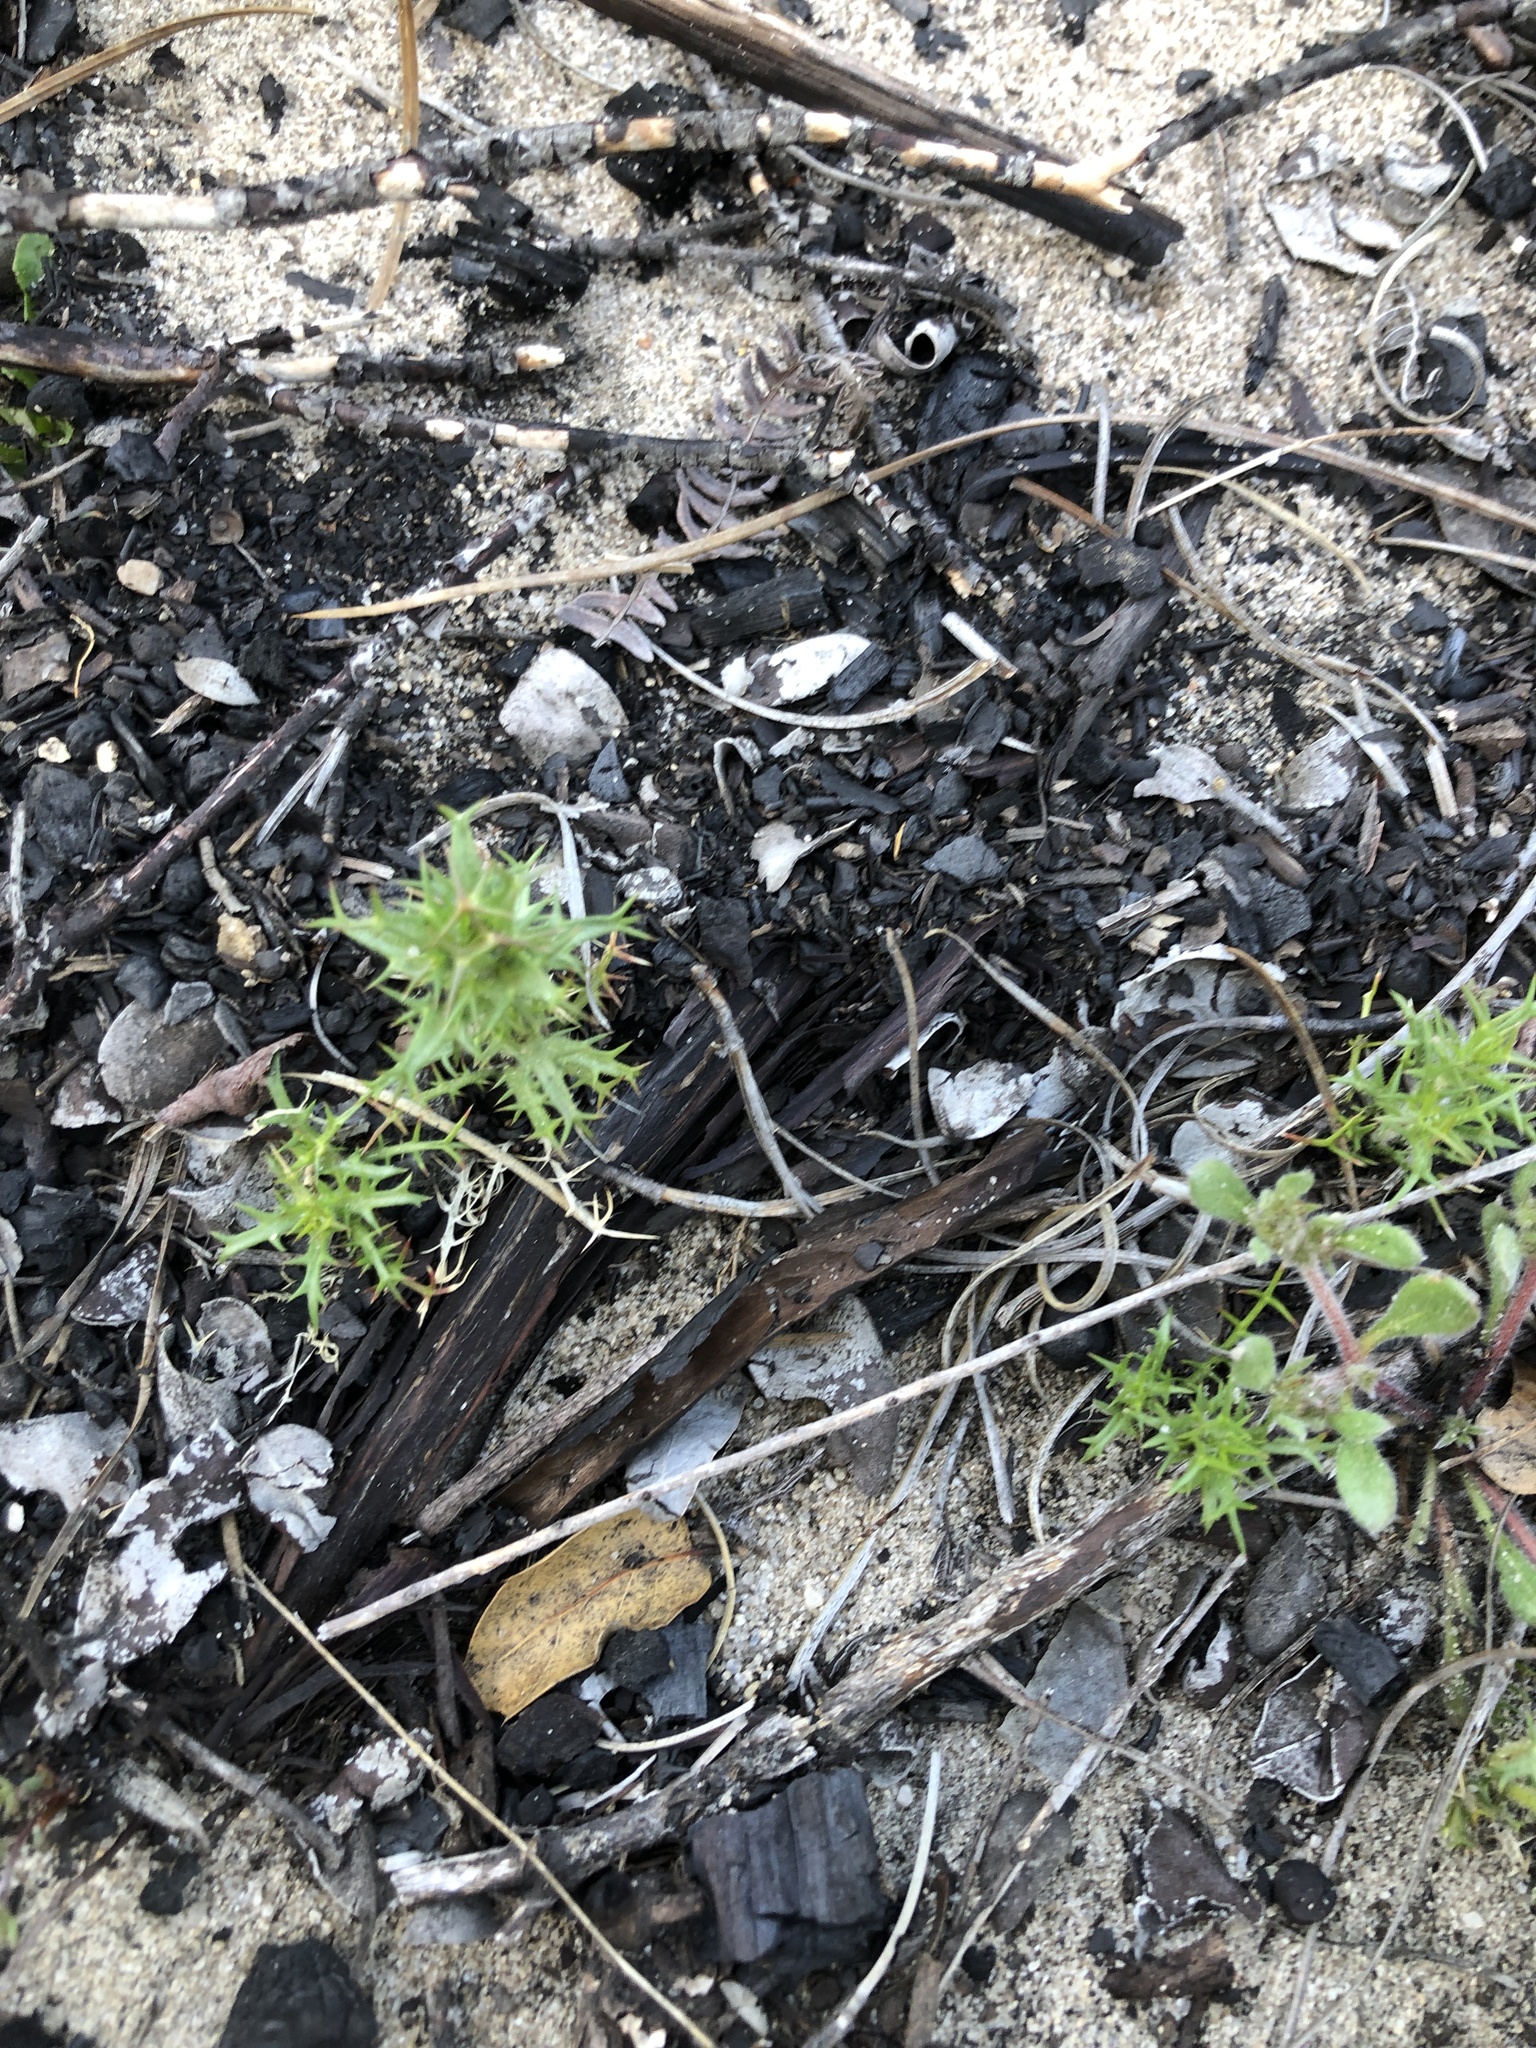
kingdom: Plantae
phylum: Tracheophyta
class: Magnoliopsida
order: Ericales
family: Polemoniaceae
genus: Navarretia
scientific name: Navarretia hamata
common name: Hooked navarretia
